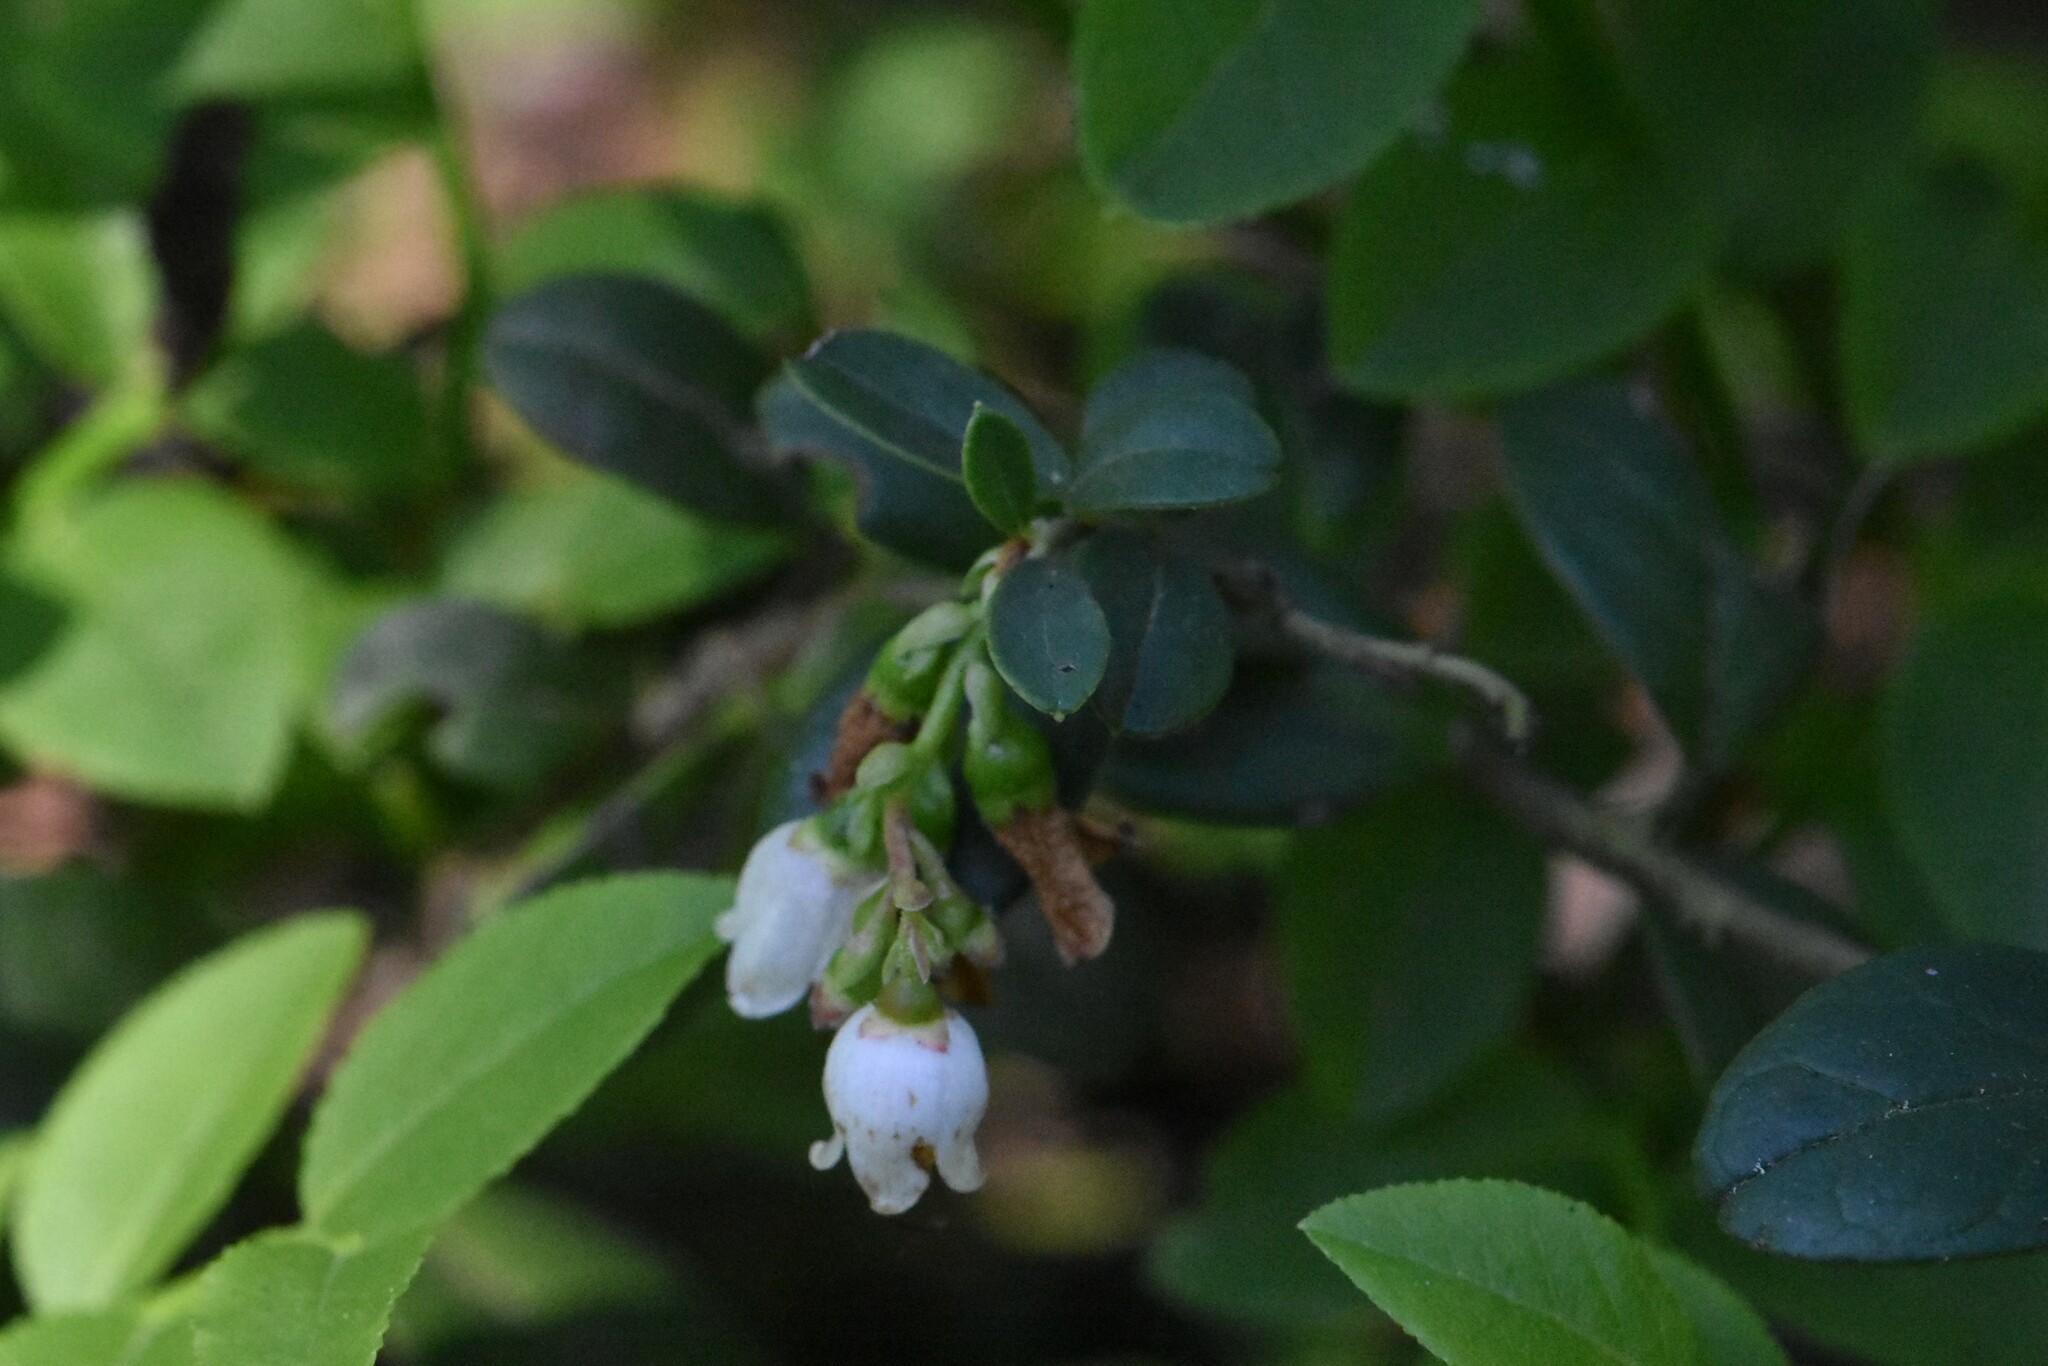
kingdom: Plantae
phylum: Tracheophyta
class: Magnoliopsida
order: Ericales
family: Ericaceae
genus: Vaccinium
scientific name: Vaccinium vitis-idaea
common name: Cowberry
